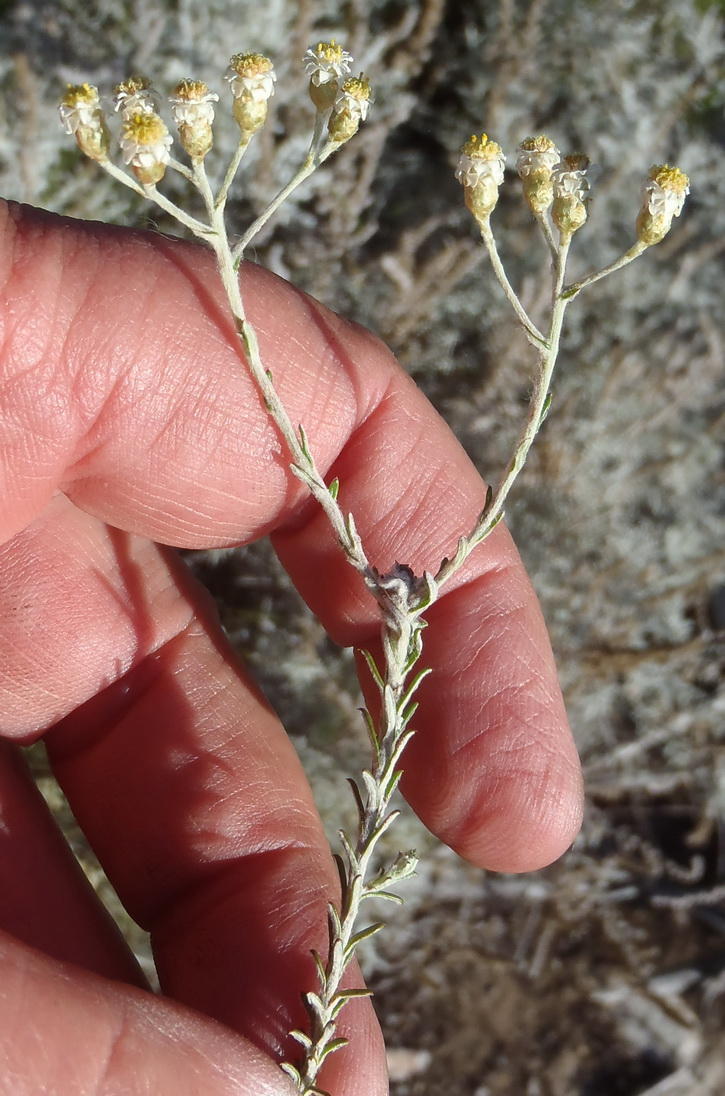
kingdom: Plantae
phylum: Tracheophyta
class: Magnoliopsida
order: Asterales
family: Asteraceae
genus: Helichrysum
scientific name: Helichrysum teretifolium
